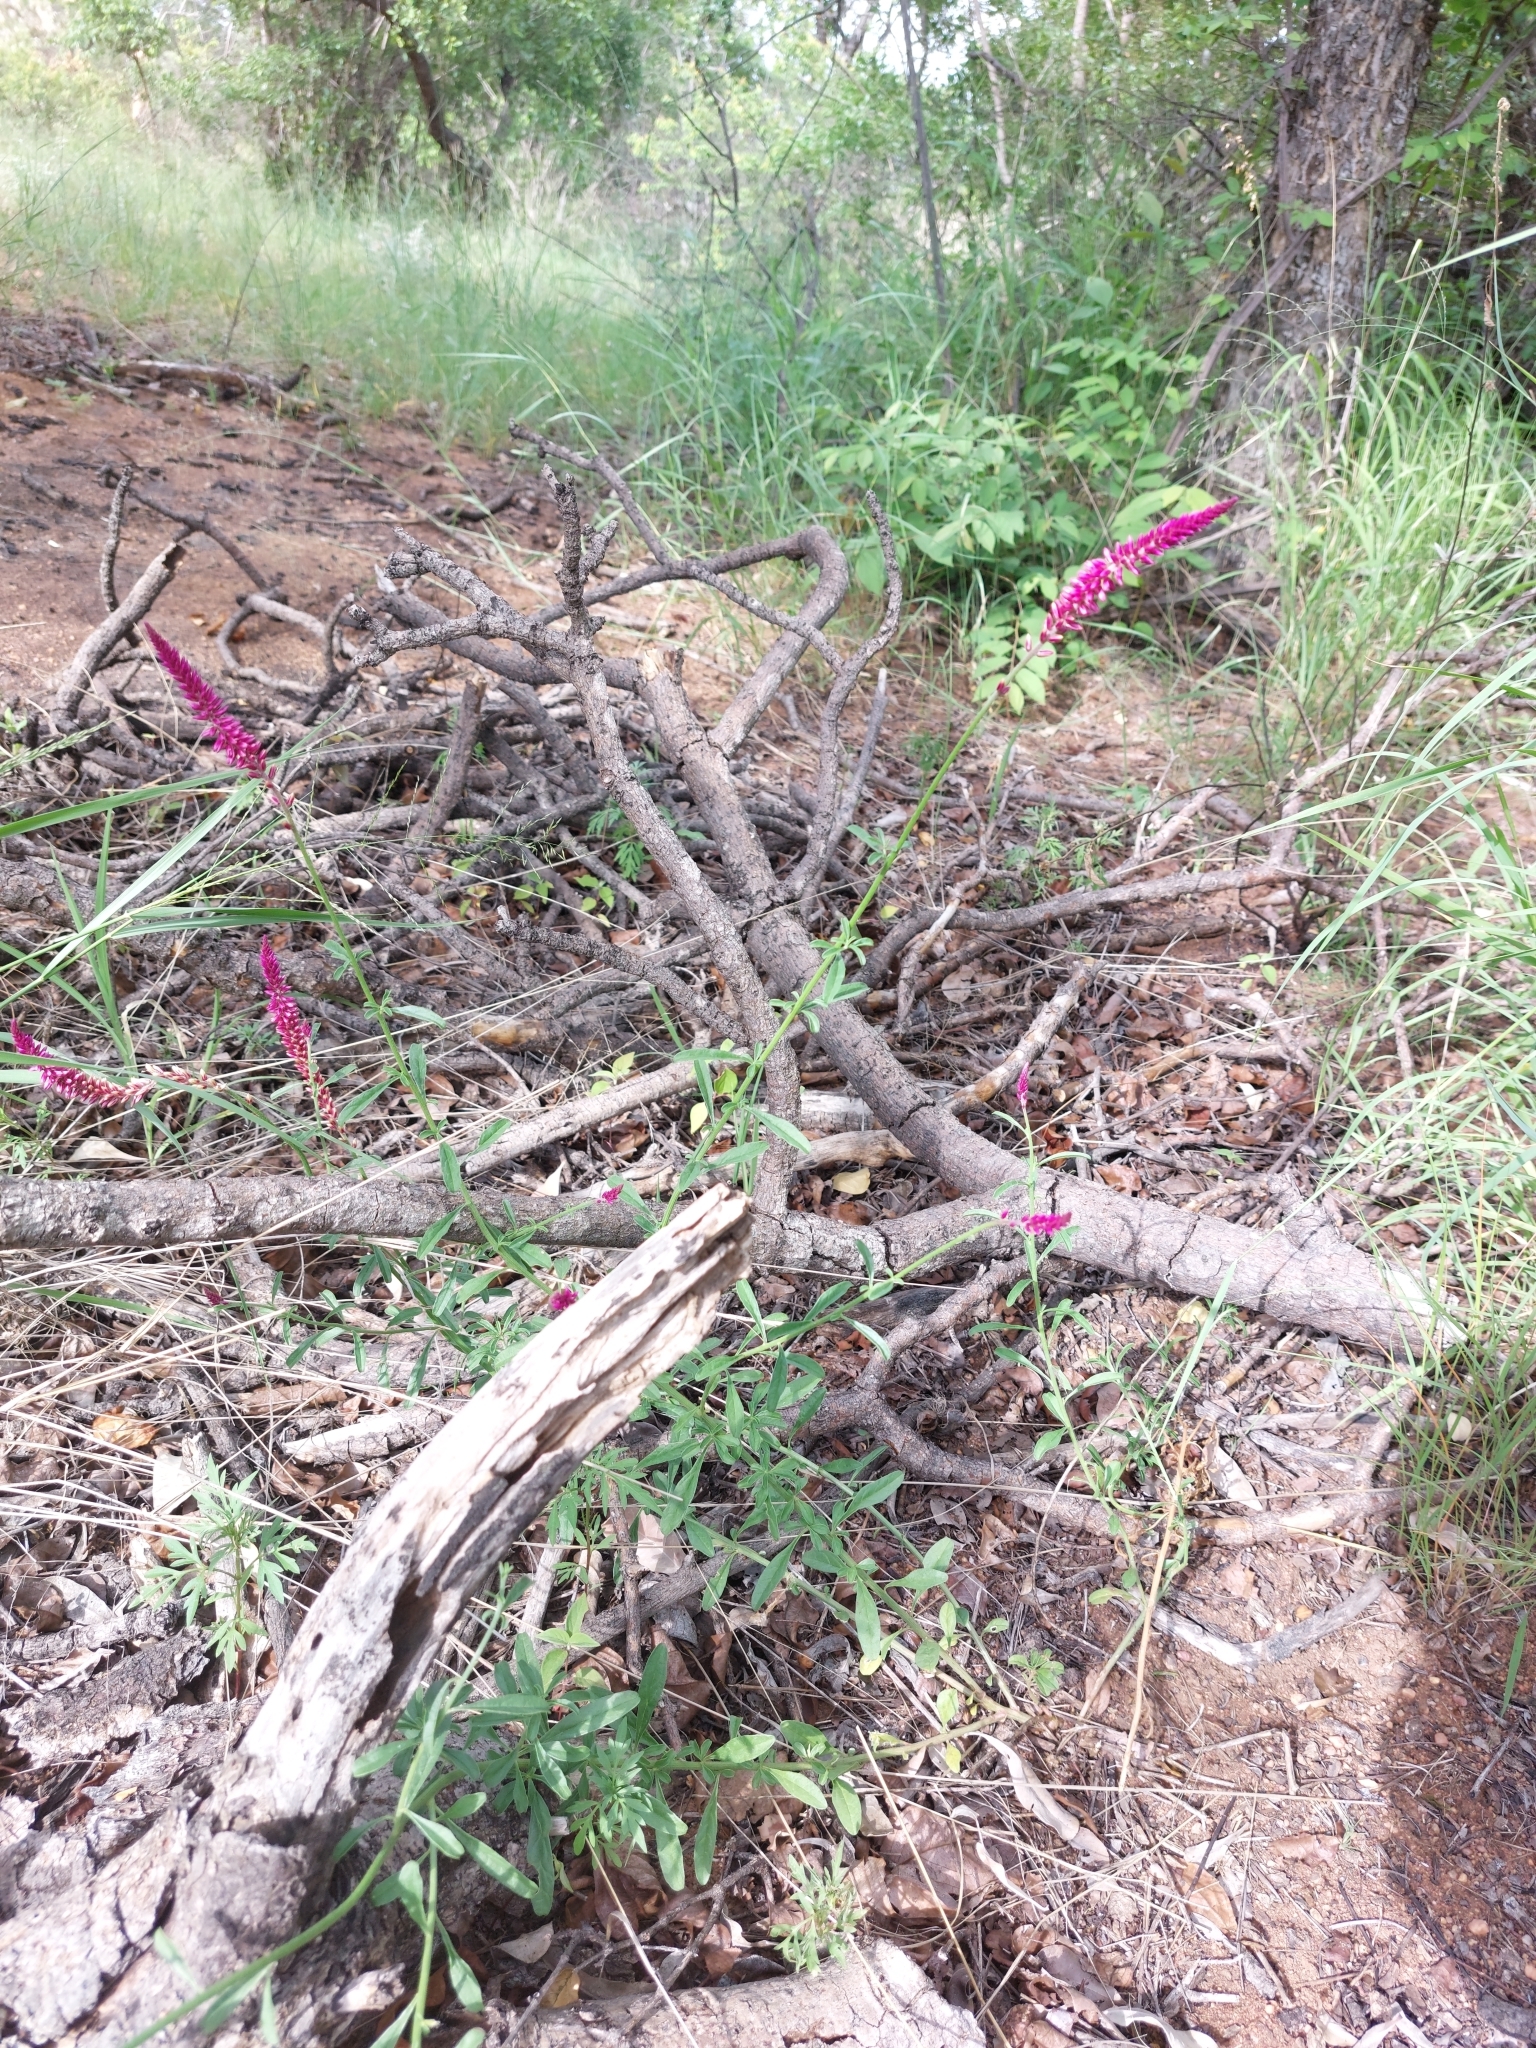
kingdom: Plantae
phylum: Tracheophyta
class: Magnoliopsida
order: Caryophyllales
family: Amaranthaceae
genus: Hermbstaedtia
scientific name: Hermbstaedtia odorata
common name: Guineaflower
